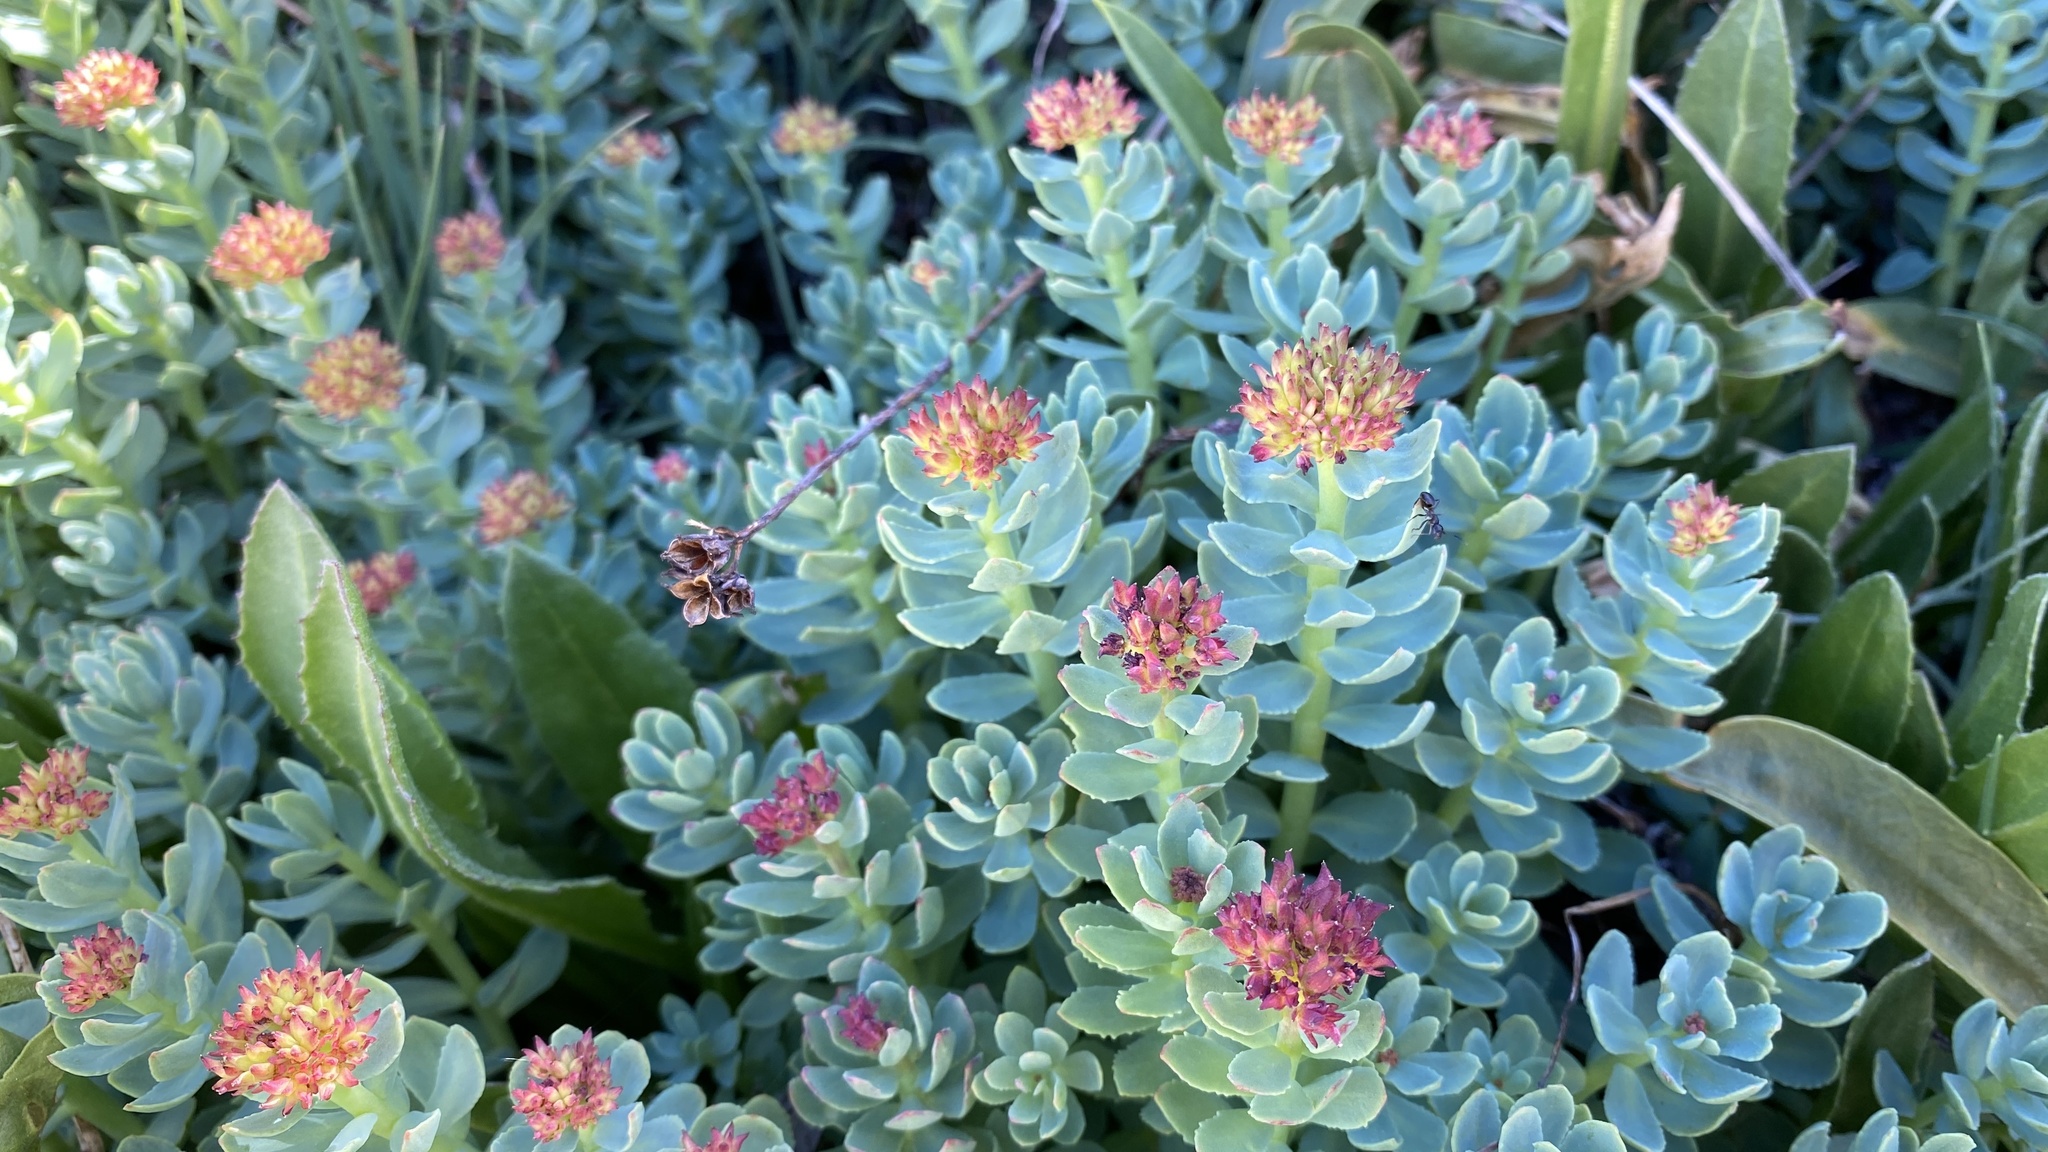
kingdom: Plantae
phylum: Tracheophyta
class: Magnoliopsida
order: Saxifragales
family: Crassulaceae
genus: Rhodiola
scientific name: Rhodiola integrifolia
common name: Western roseroot
